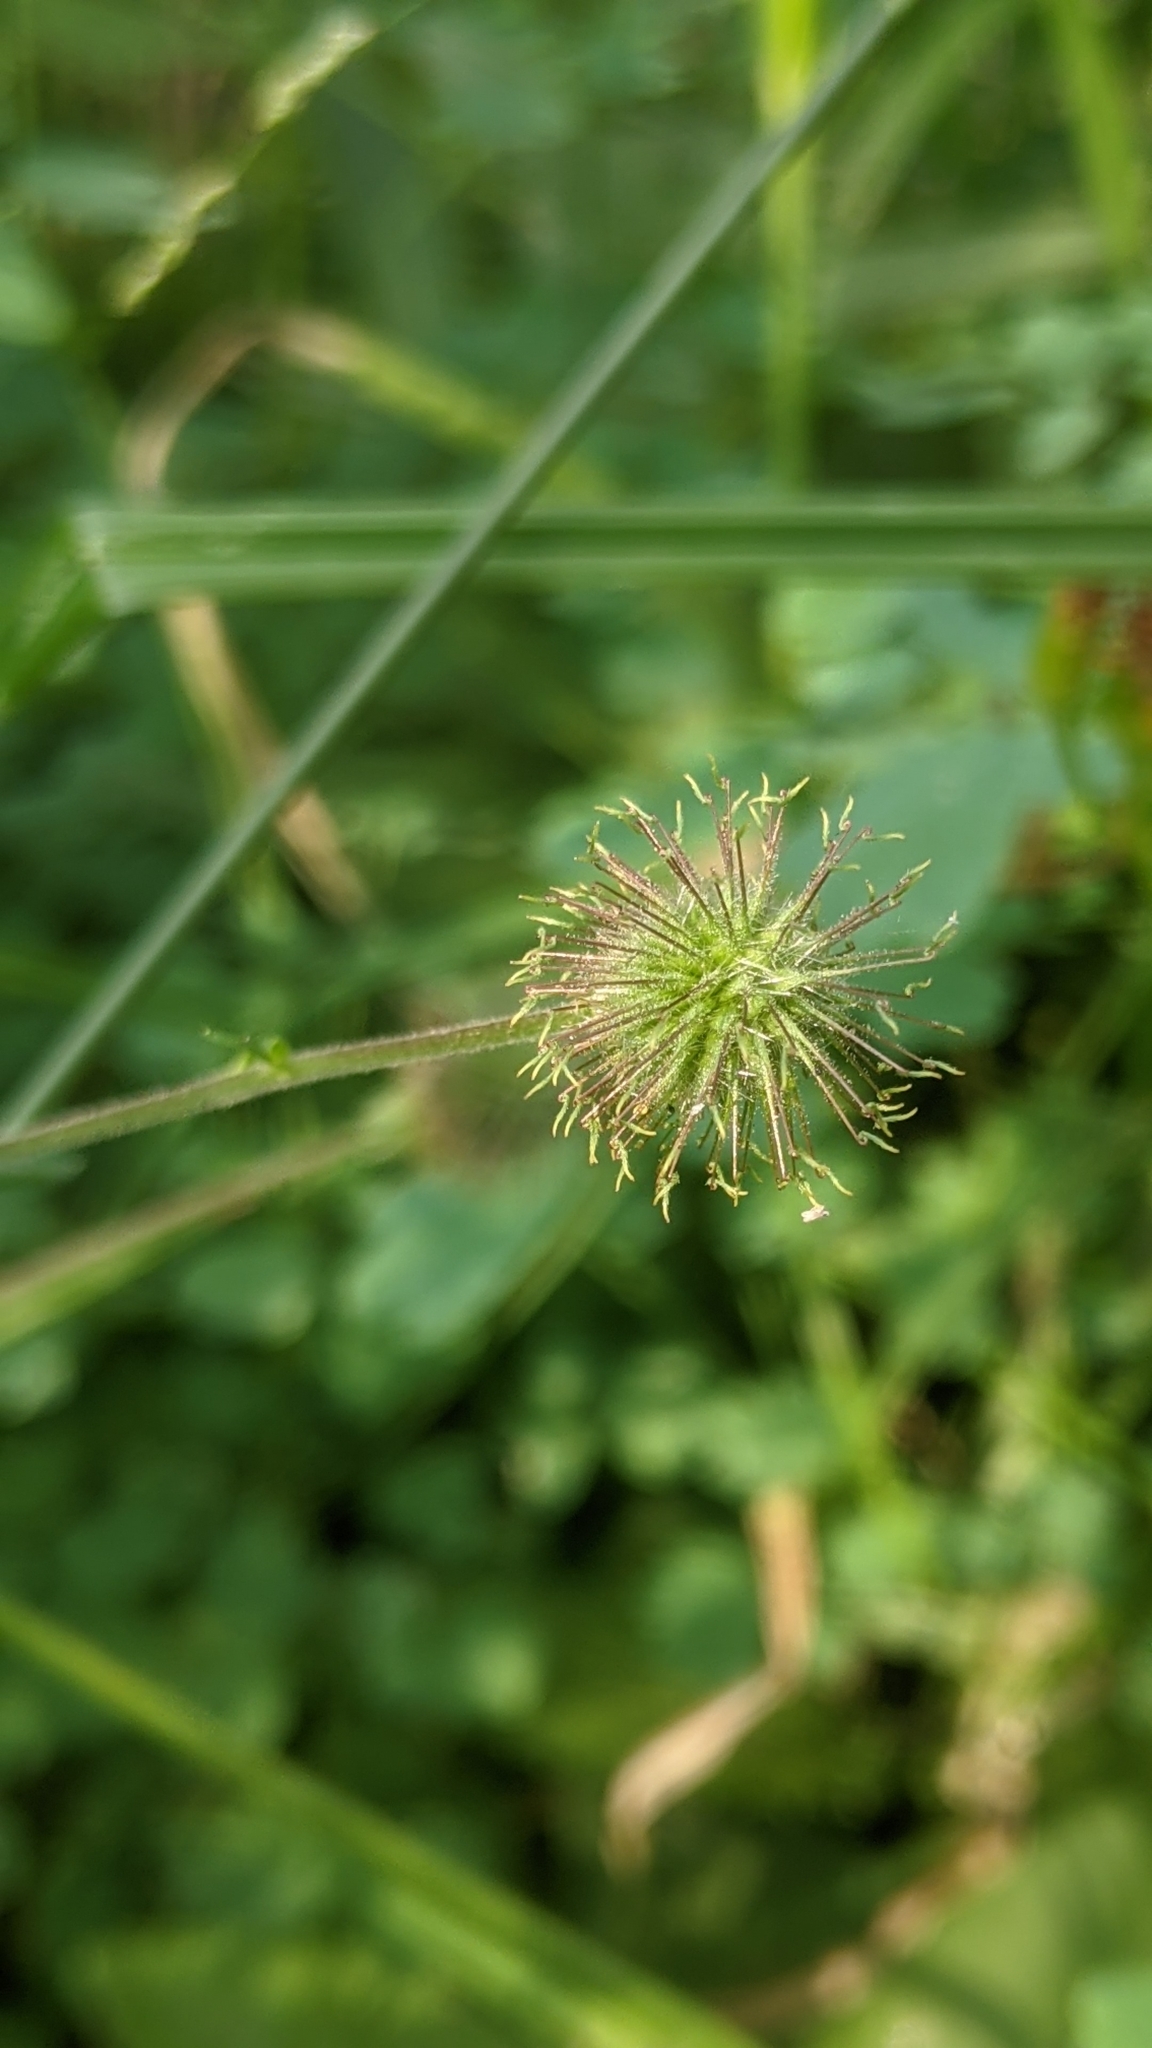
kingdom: Plantae
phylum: Tracheophyta
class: Magnoliopsida
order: Rosales
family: Rosaceae
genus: Geum
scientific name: Geum macrophyllum
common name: Large-leaved avens
